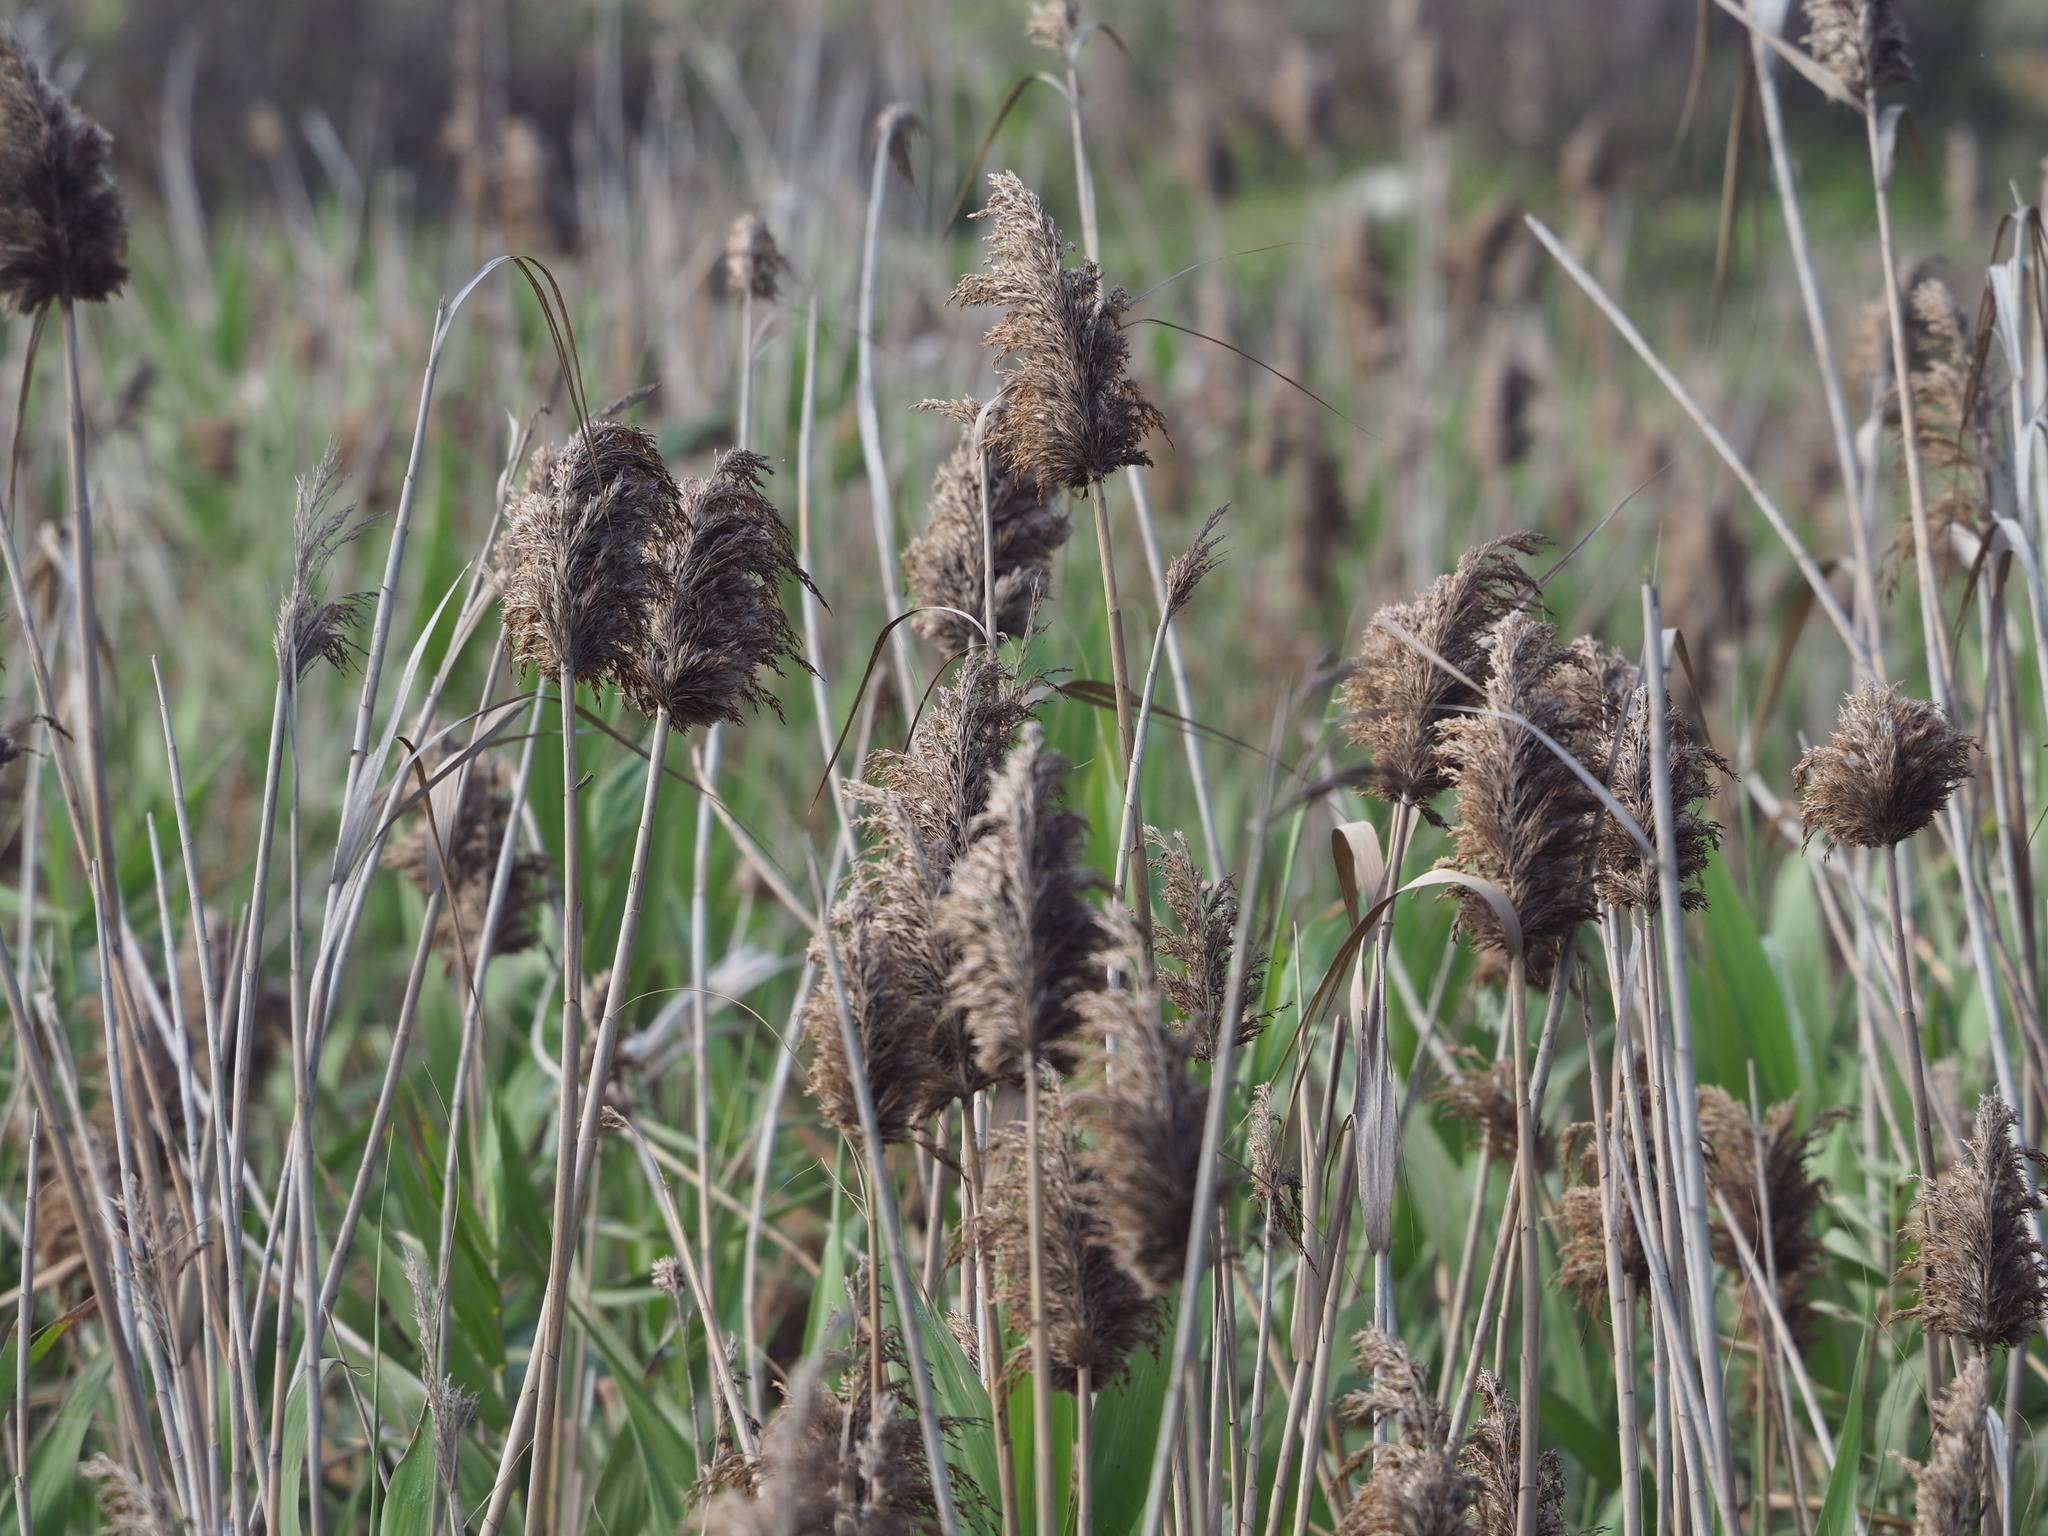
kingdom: Plantae
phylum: Tracheophyta
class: Liliopsida
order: Poales
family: Poaceae
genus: Phragmites
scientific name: Phragmites australis
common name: Common reed
